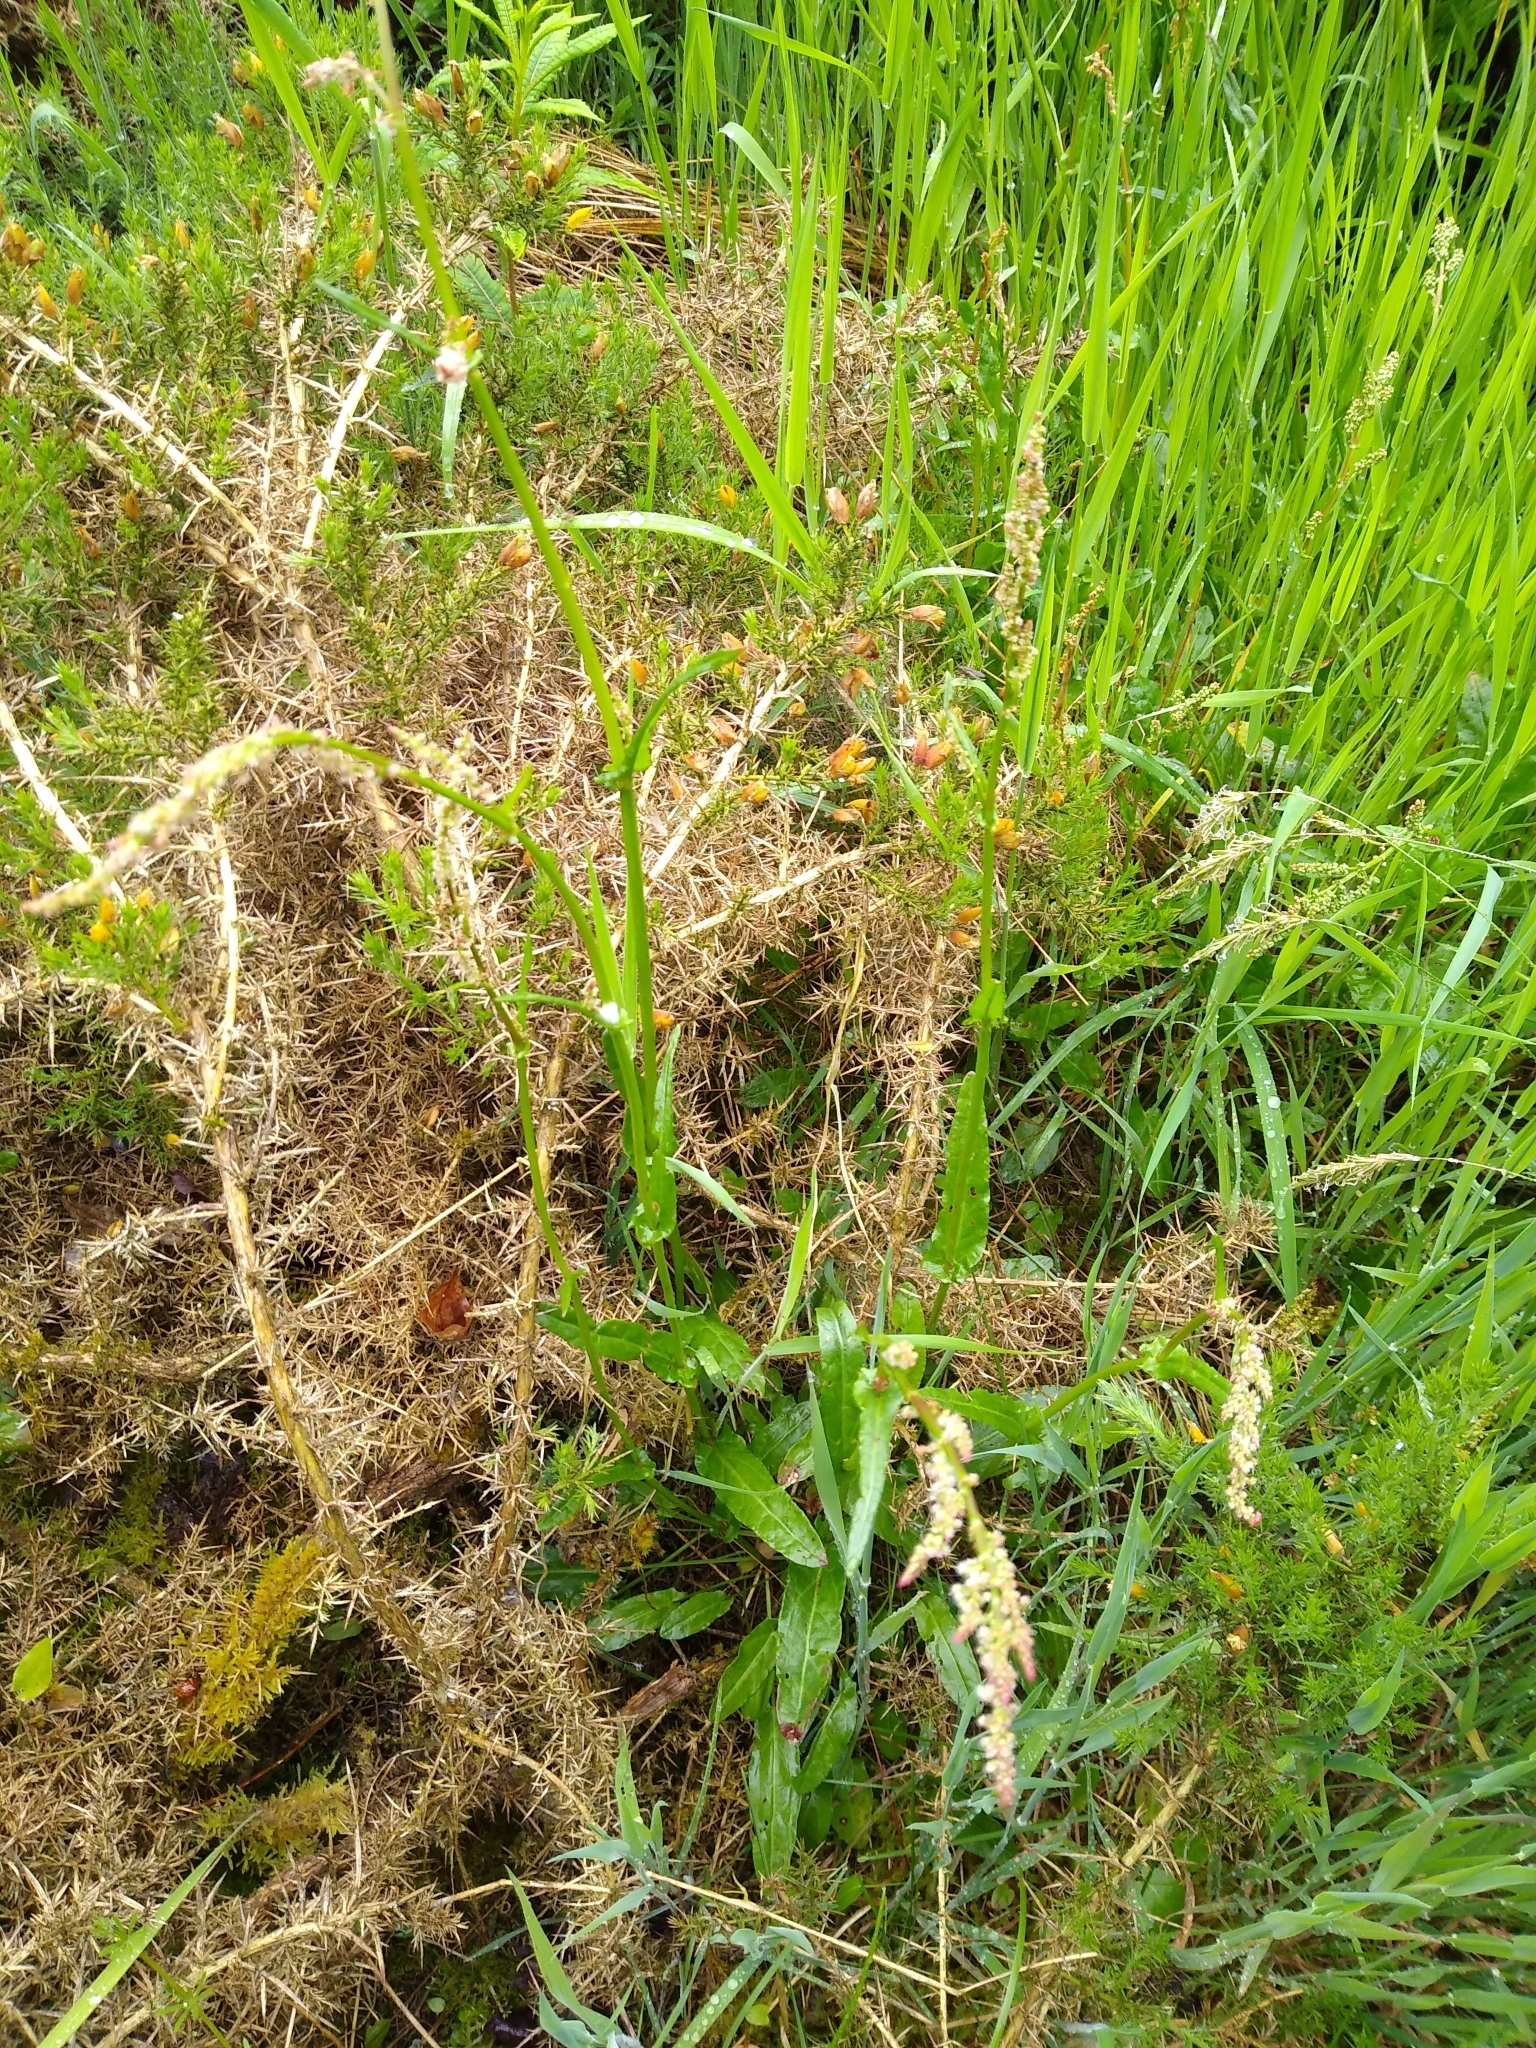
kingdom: Plantae
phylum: Tracheophyta
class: Magnoliopsida
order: Caryophyllales
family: Polygonaceae
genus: Rumex
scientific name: Rumex acetosa
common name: Garden sorrel
